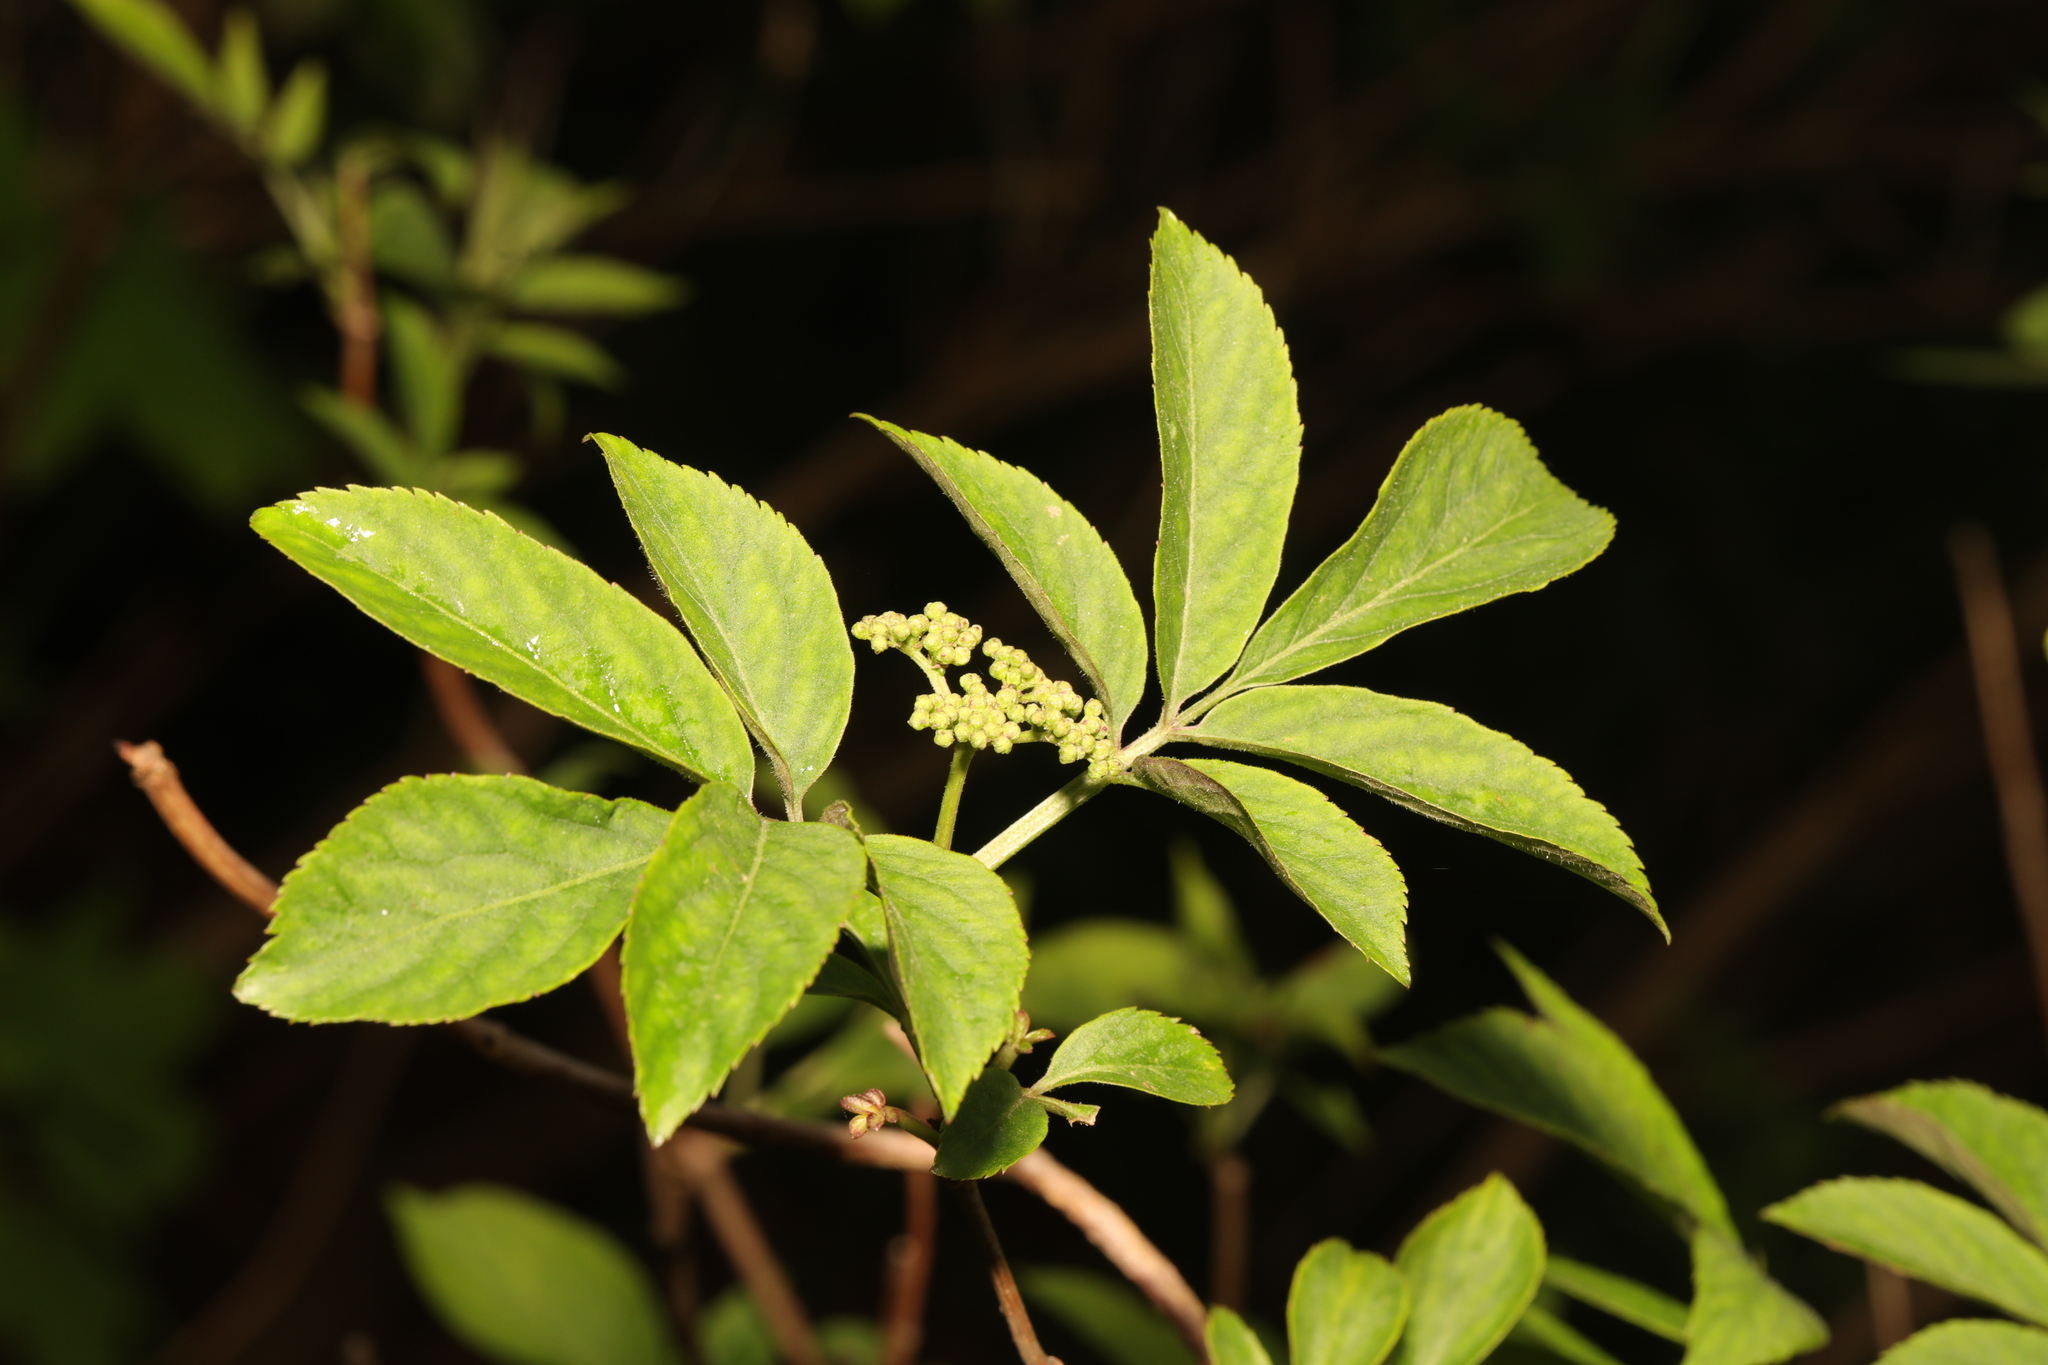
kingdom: Plantae
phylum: Tracheophyta
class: Magnoliopsida
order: Dipsacales
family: Viburnaceae
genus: Sambucus
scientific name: Sambucus nigra
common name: Elder
